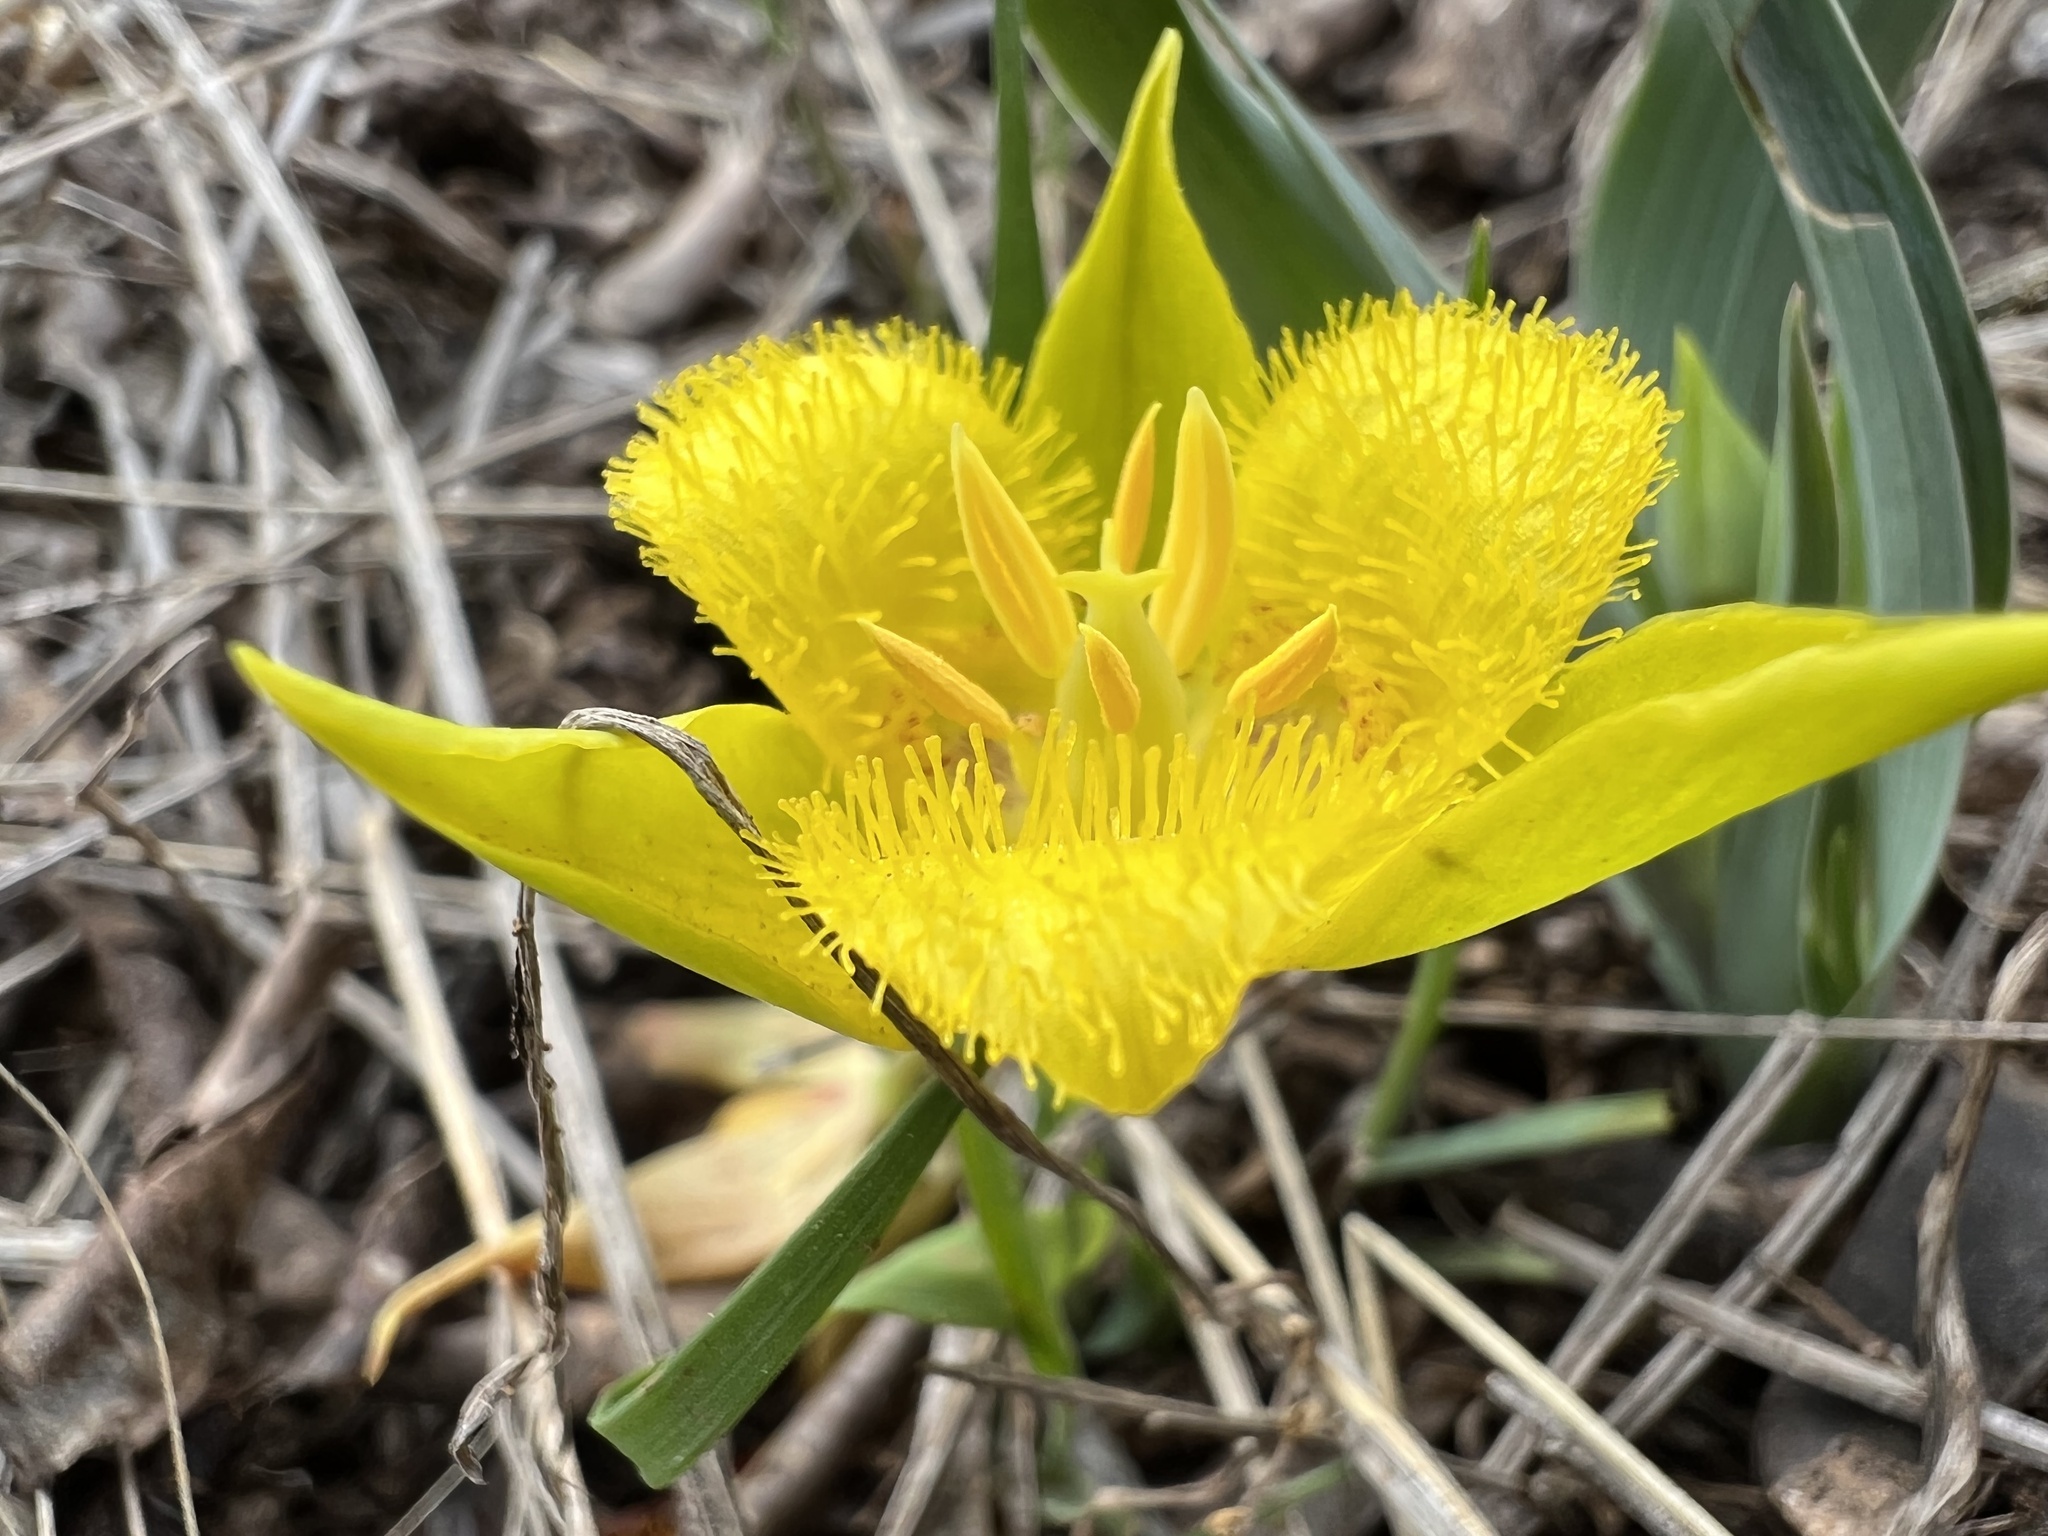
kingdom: Plantae
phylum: Tracheophyta
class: Liliopsida
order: Liliales
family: Liliaceae
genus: Calochortus
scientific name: Calochortus monophyllus
